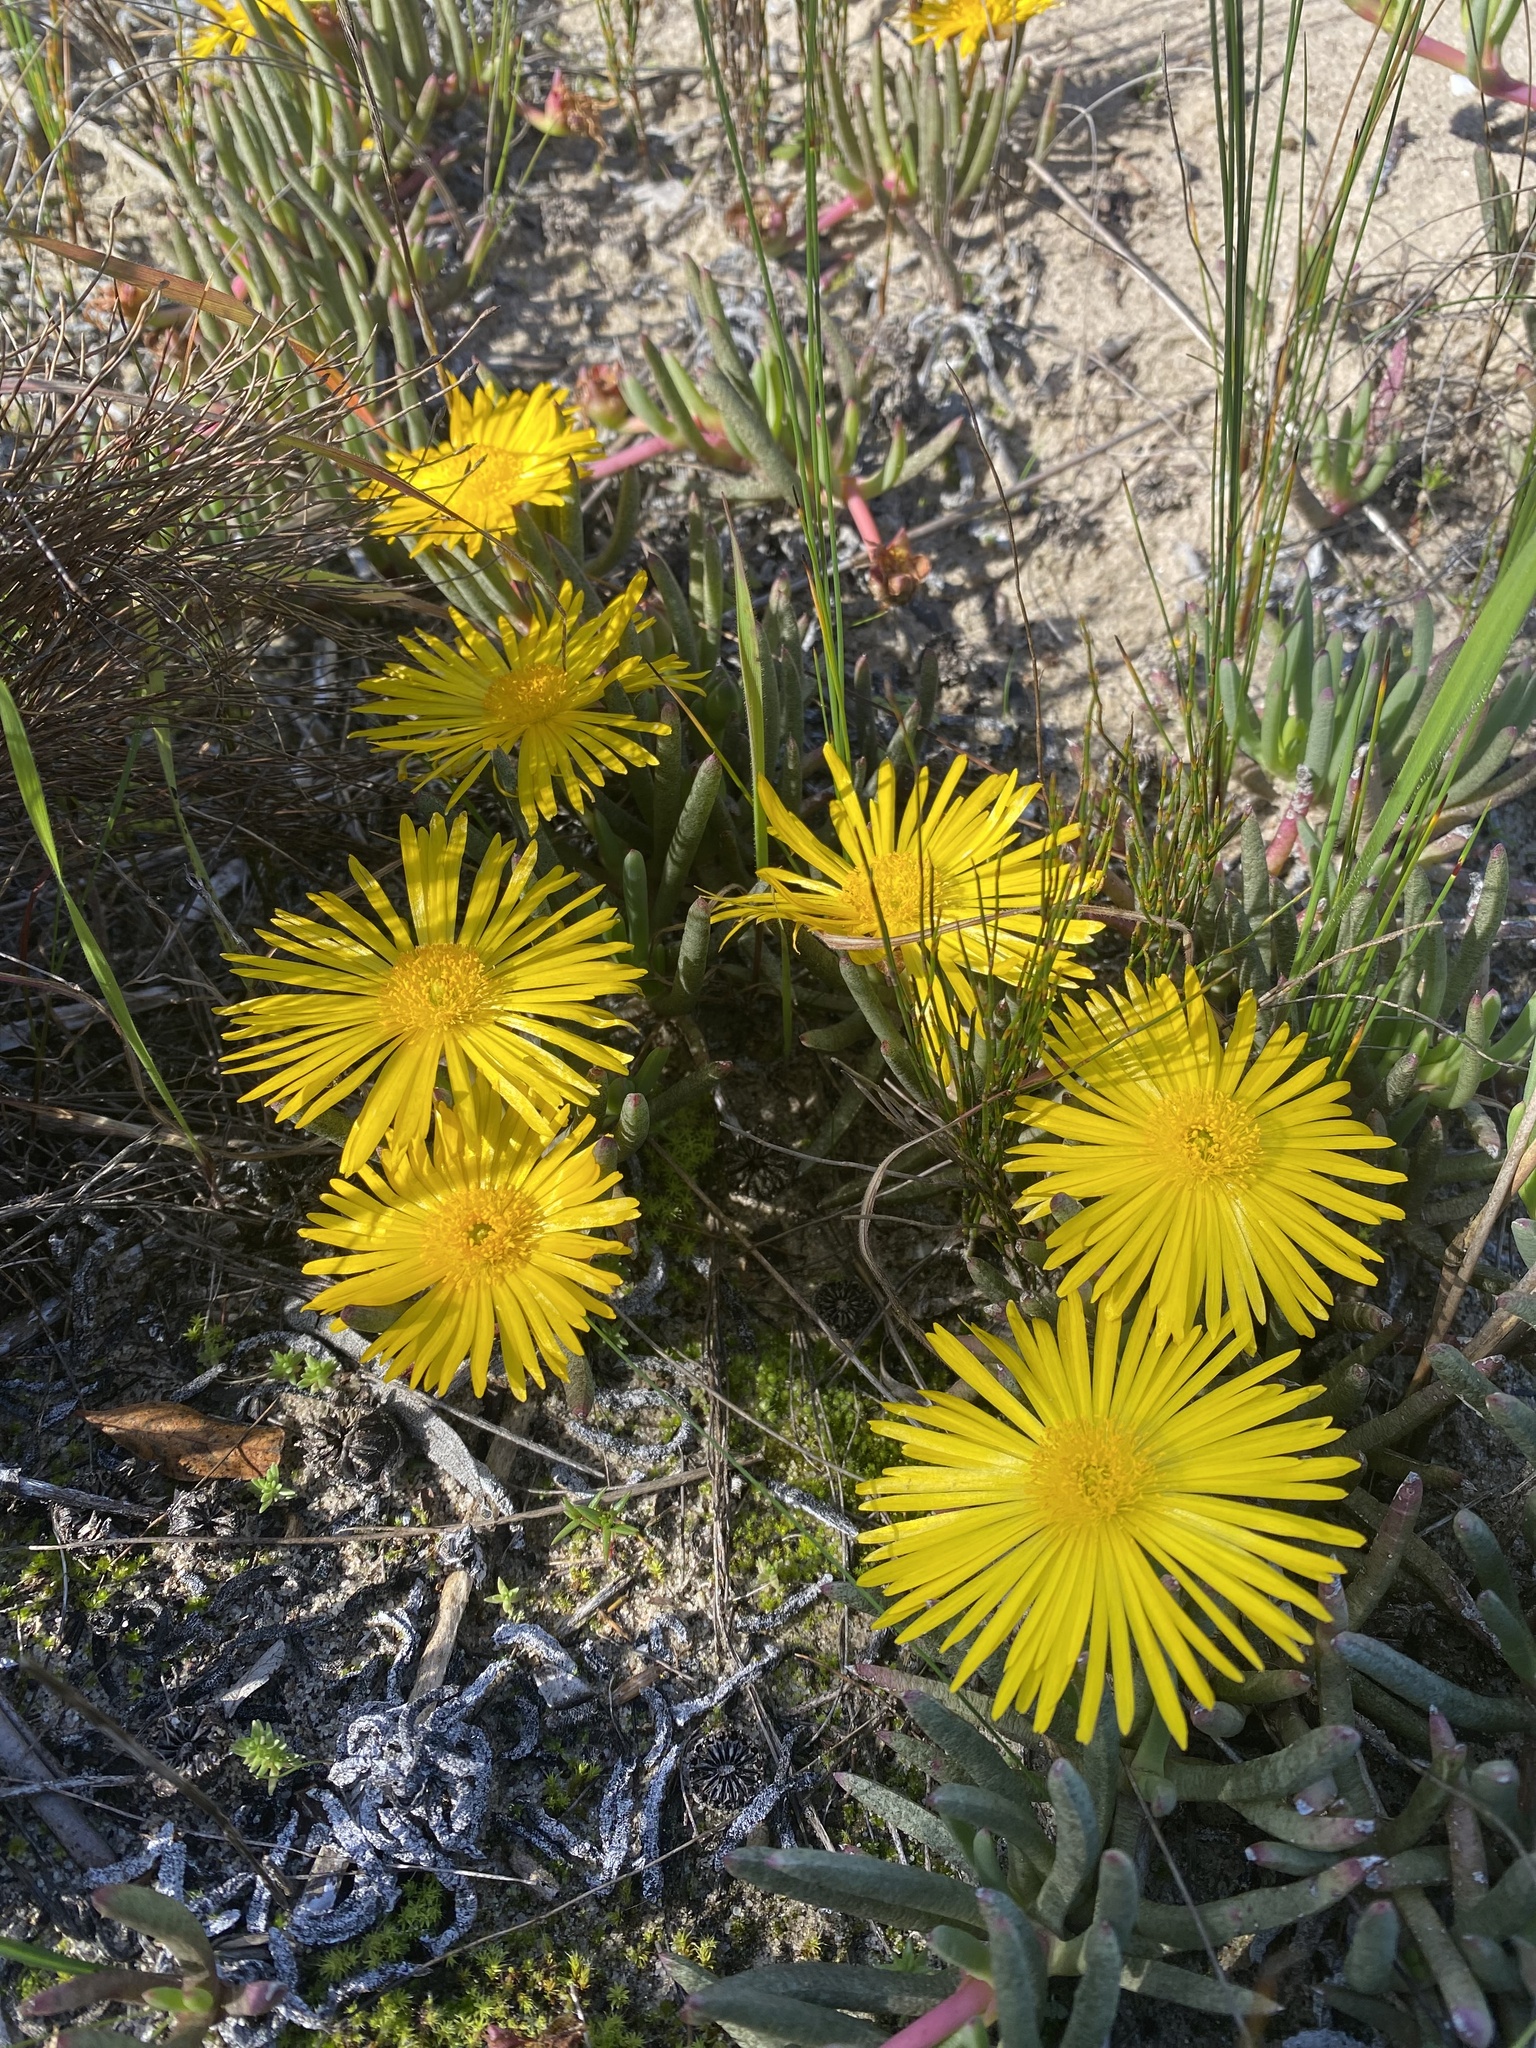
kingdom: Plantae
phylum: Tracheophyta
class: Magnoliopsida
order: Caryophyllales
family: Aizoaceae
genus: Jordaaniella
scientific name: Jordaaniella dubia
